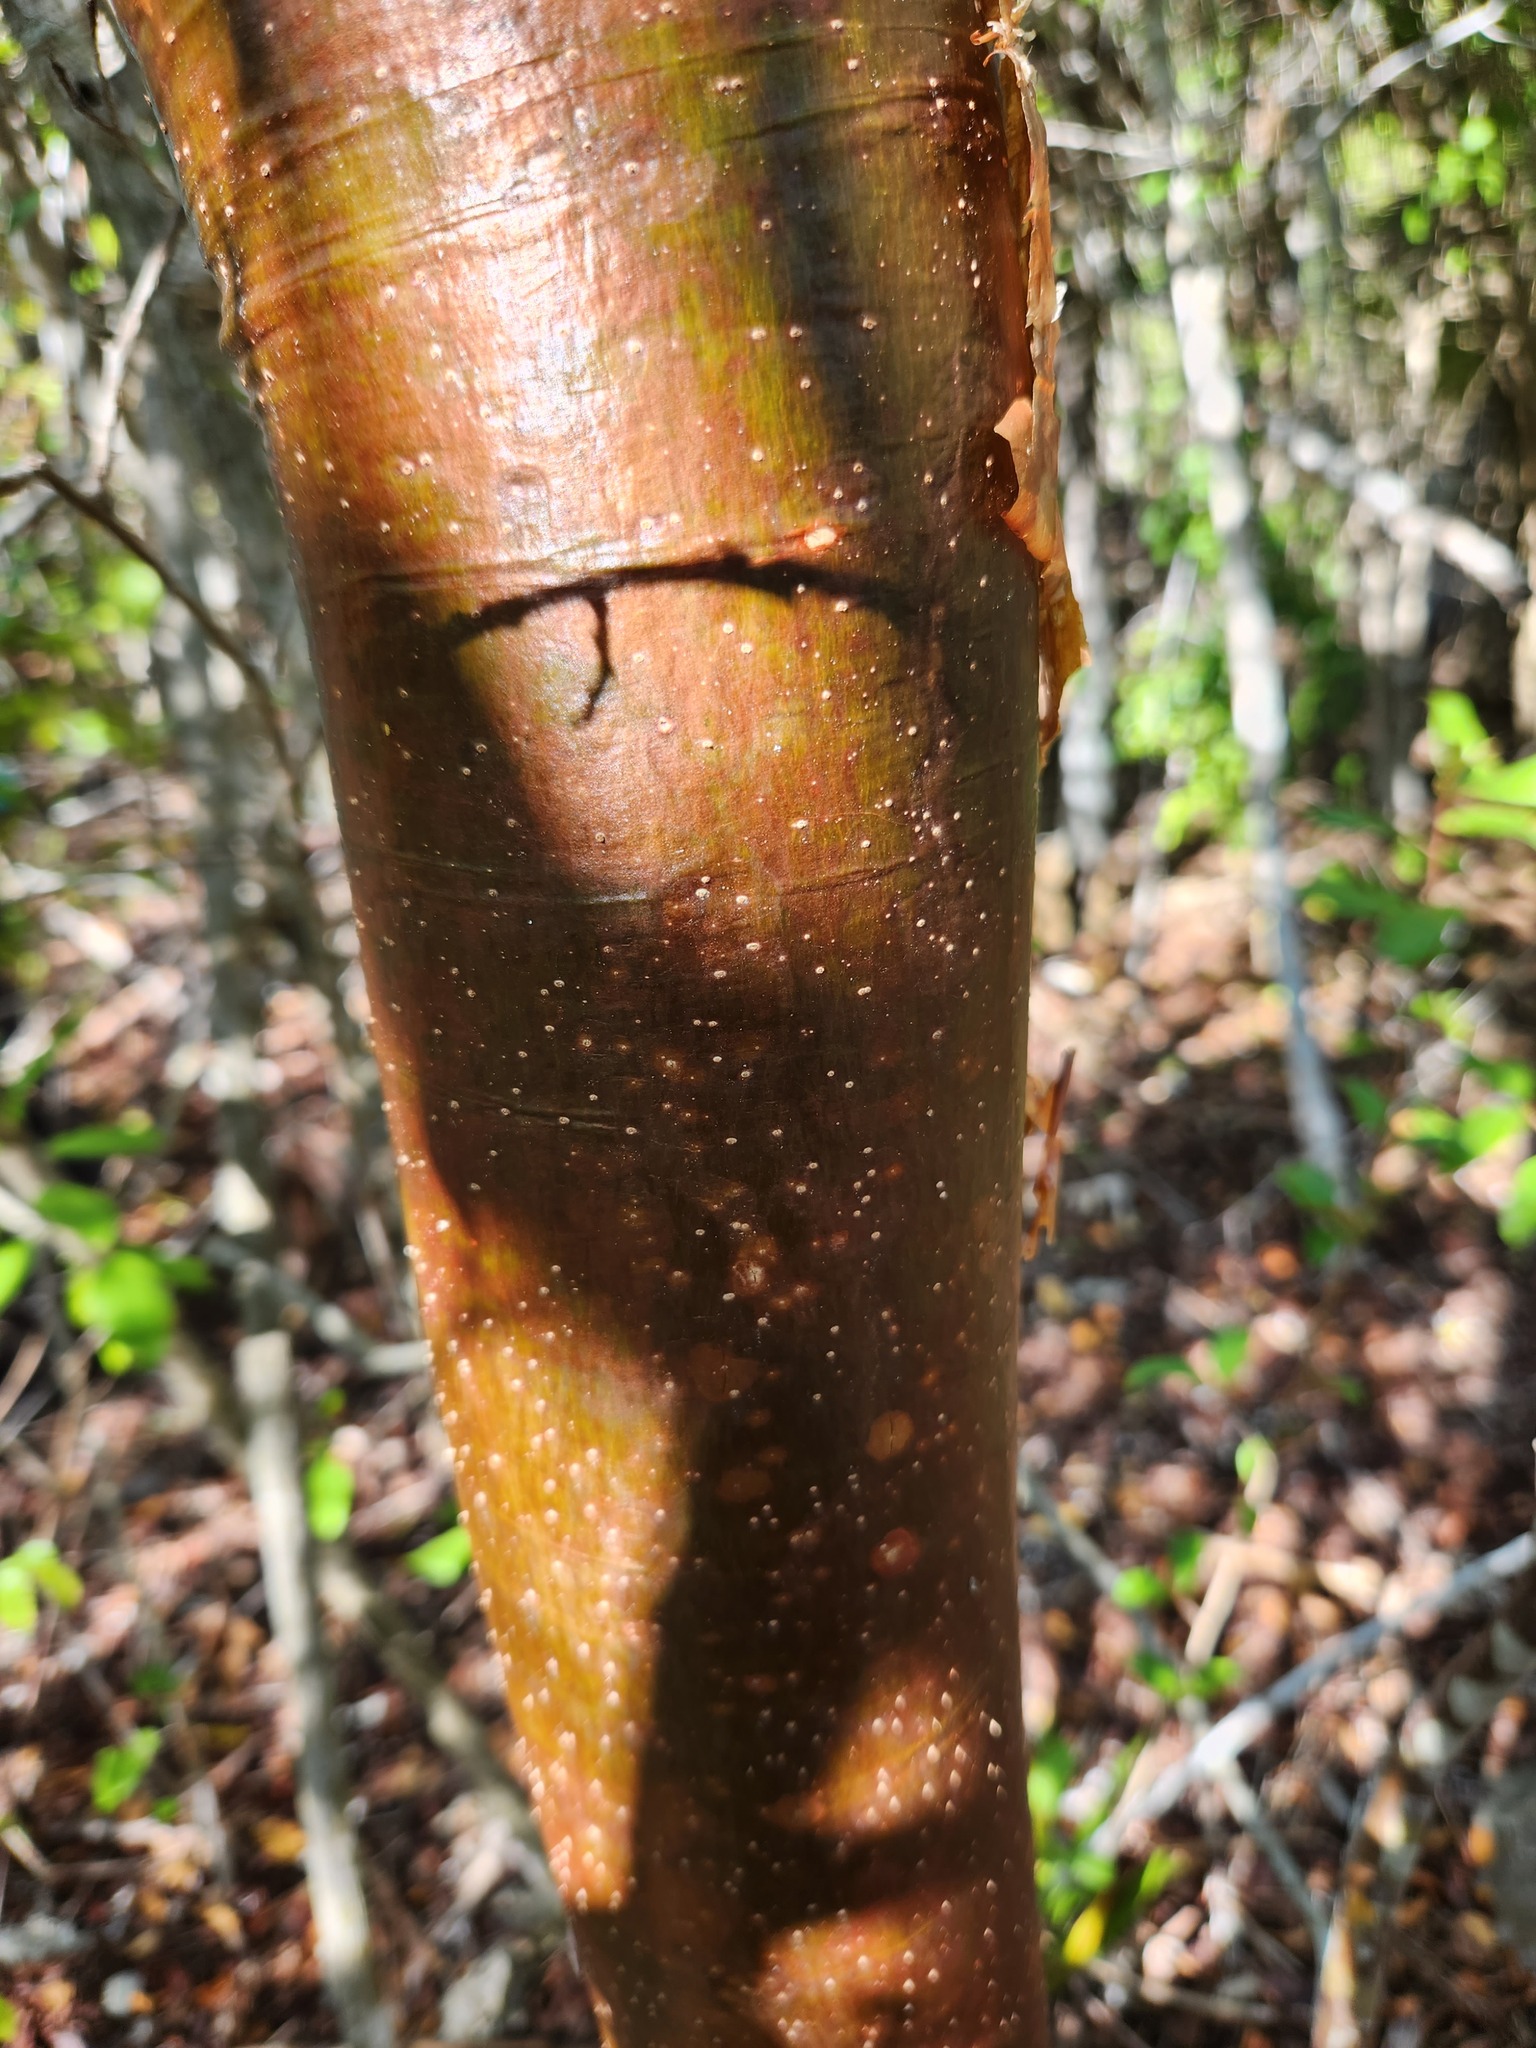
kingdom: Plantae
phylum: Tracheophyta
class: Magnoliopsida
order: Sapindales
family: Burseraceae
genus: Bursera
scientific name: Bursera simaruba
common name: Turpentine tree
